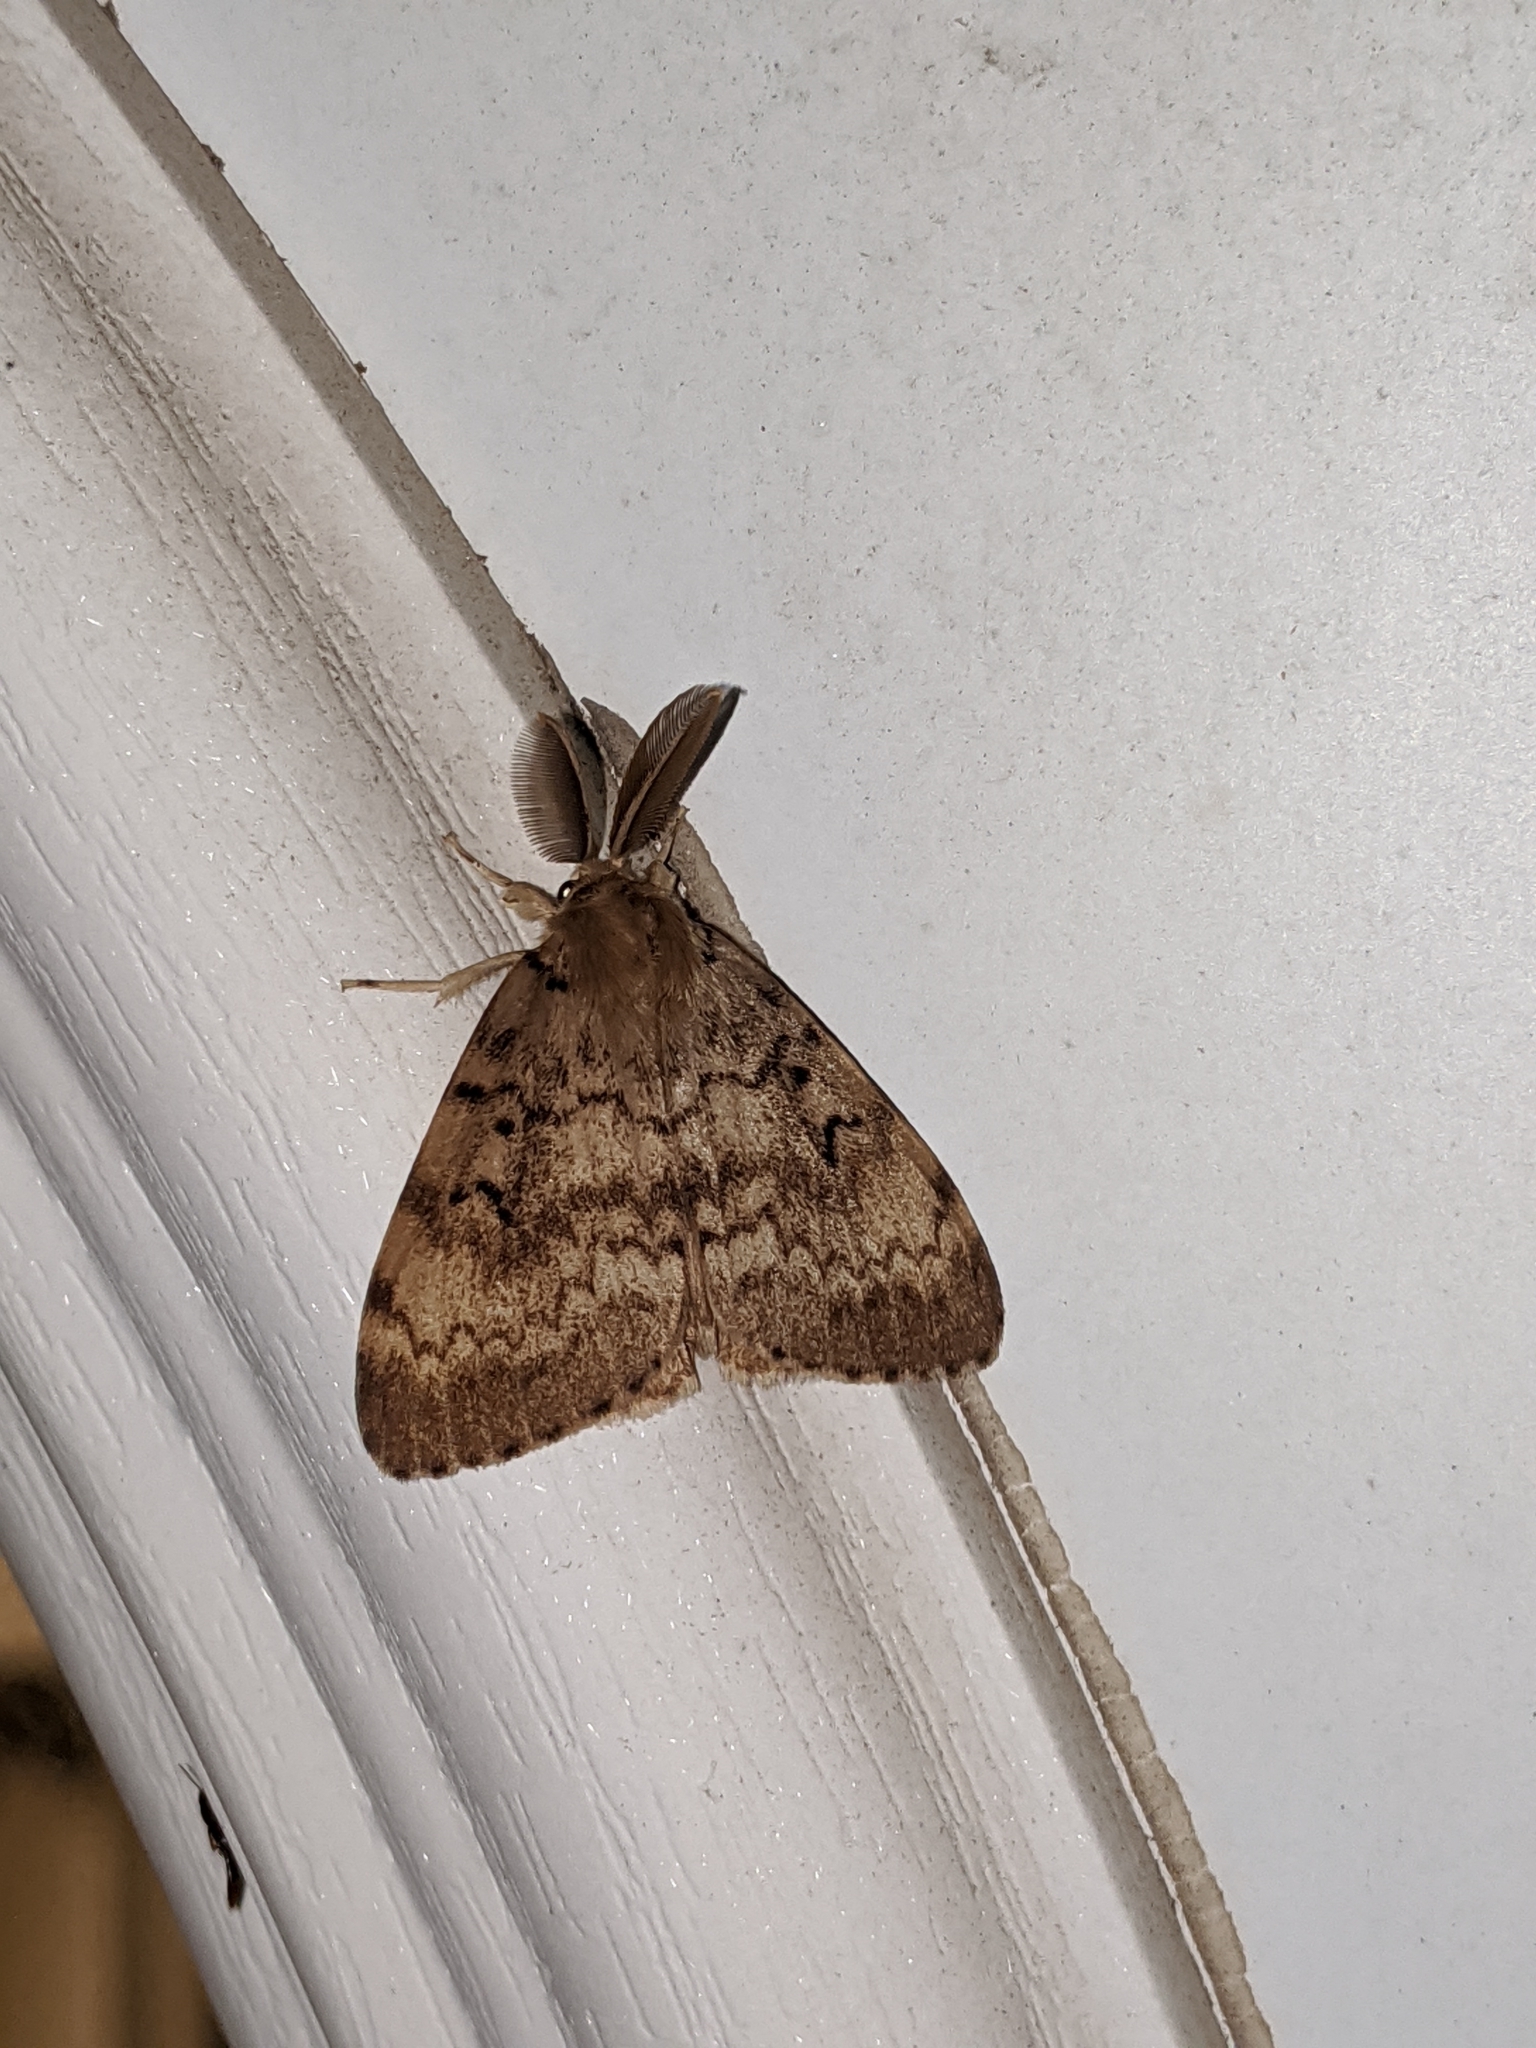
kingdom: Animalia
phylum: Arthropoda
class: Insecta
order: Lepidoptera
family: Erebidae
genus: Lymantria
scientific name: Lymantria dispar
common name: Gypsy moth
